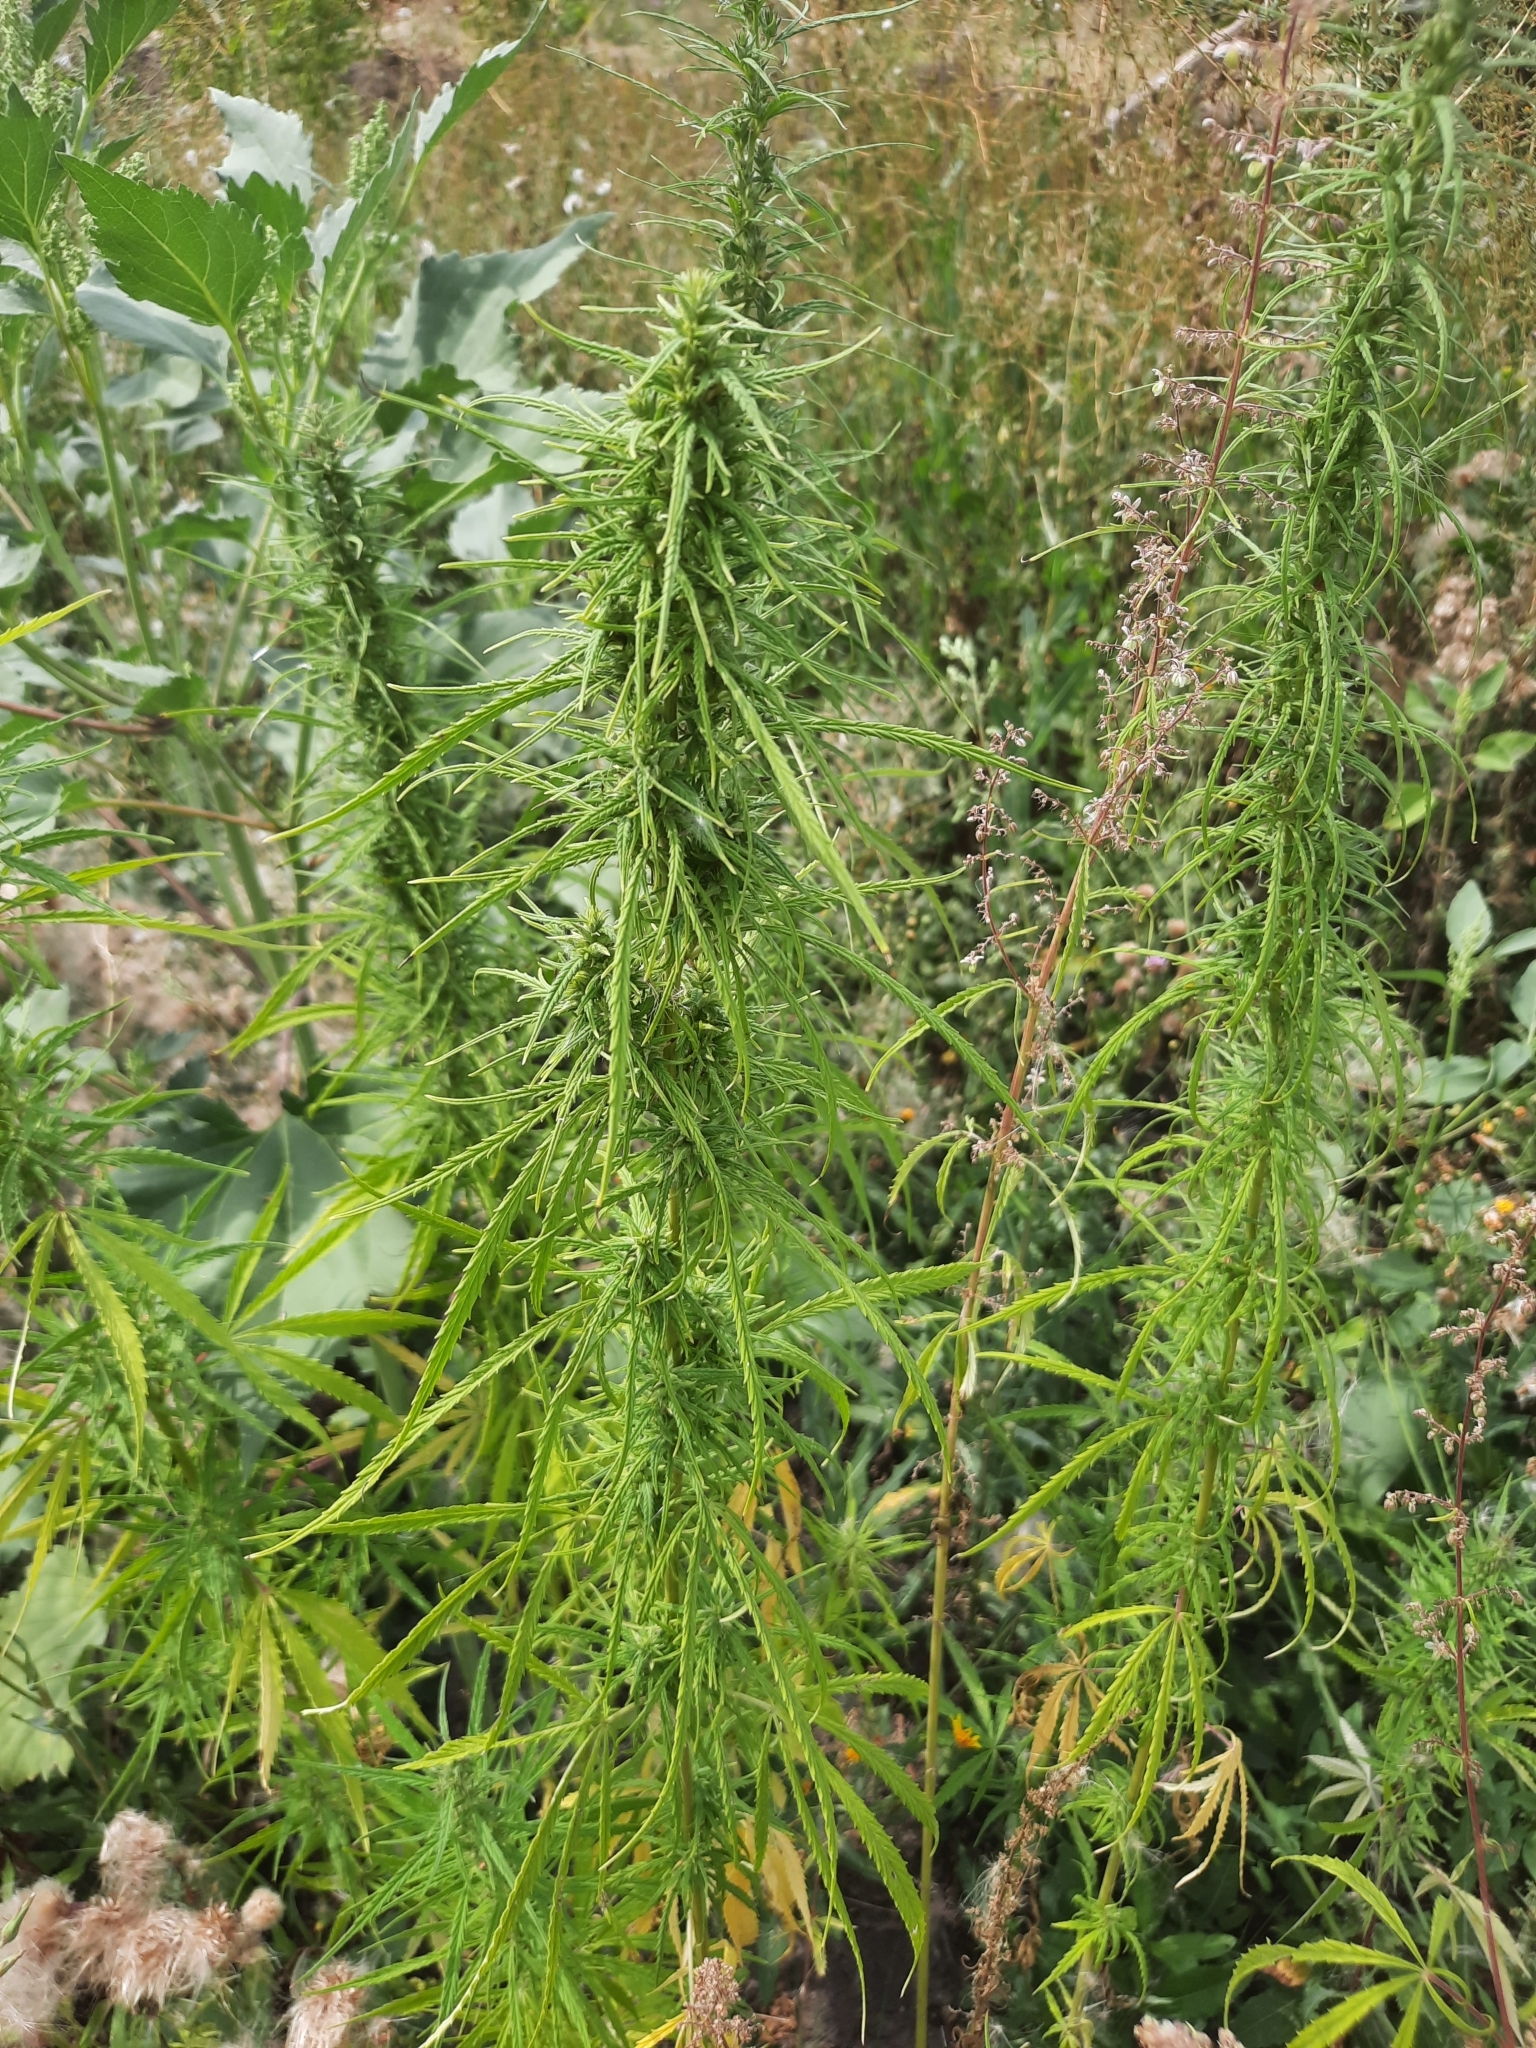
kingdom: Plantae
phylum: Tracheophyta
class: Magnoliopsida
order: Rosales
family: Cannabaceae
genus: Cannabis
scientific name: Cannabis sativa
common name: Hemp
